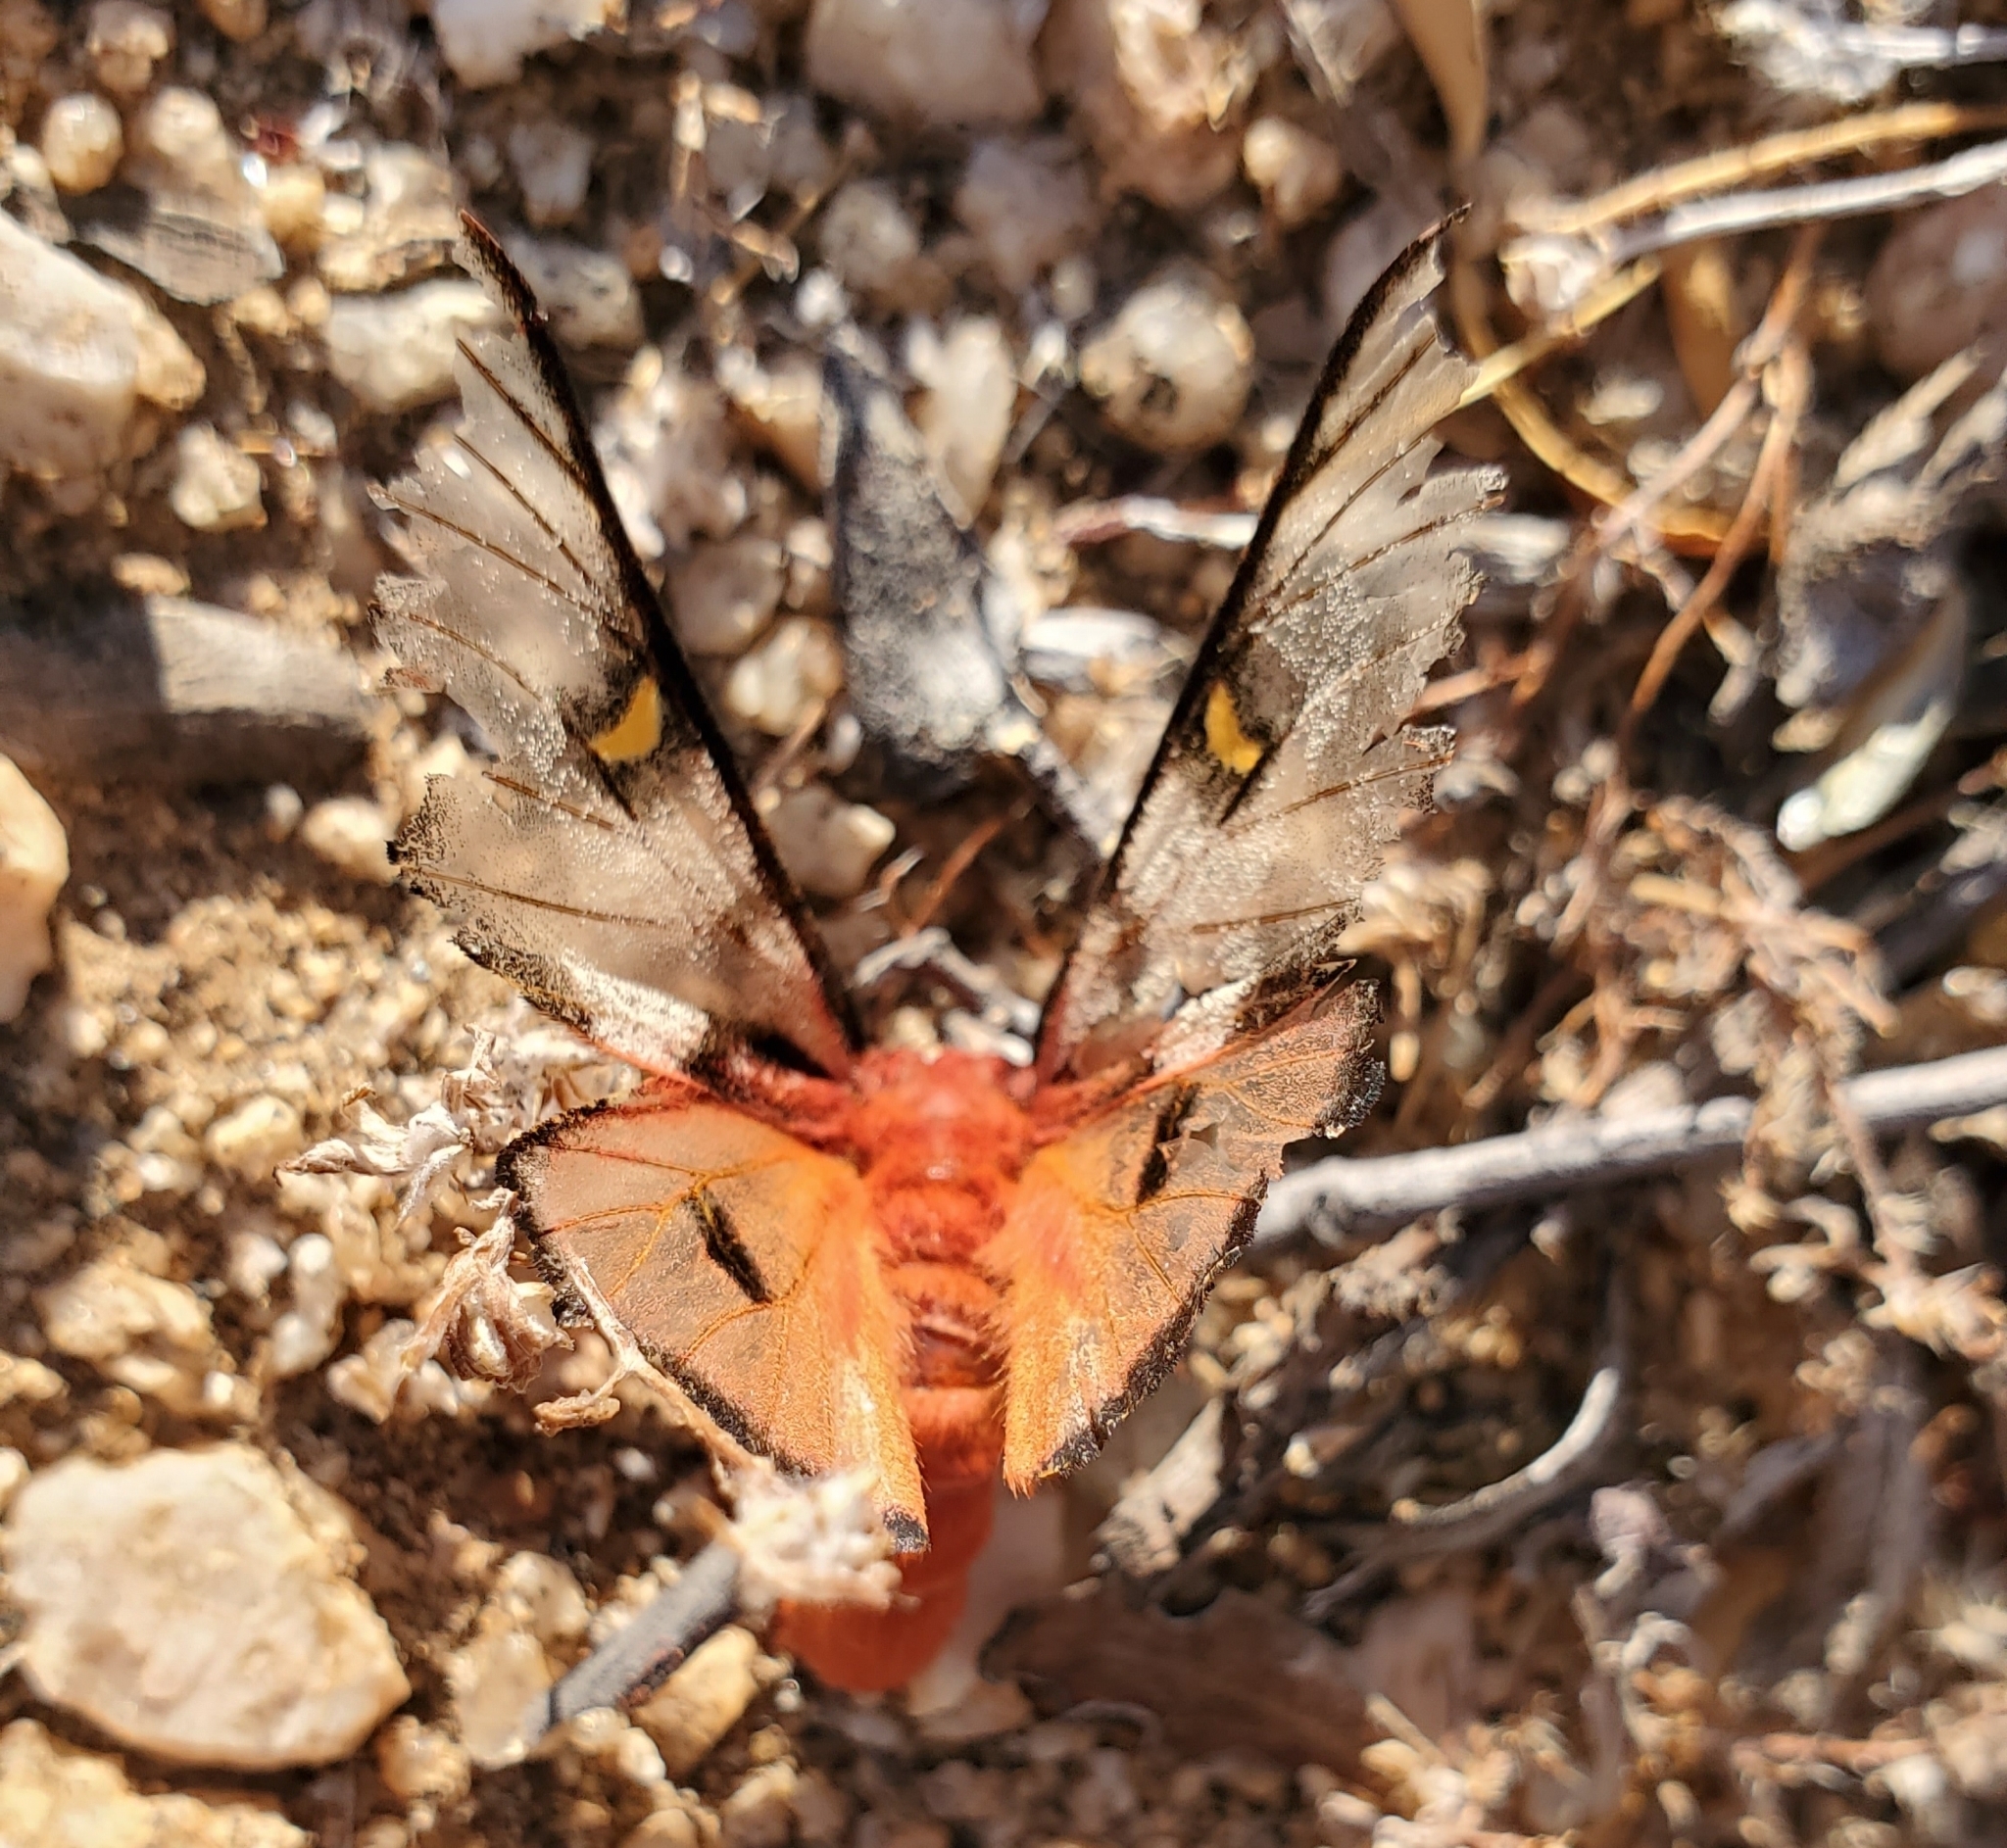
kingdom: Animalia
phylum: Arthropoda
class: Insecta
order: Lepidoptera
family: Saturniidae
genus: Hemileuca
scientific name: Hemileuca electra
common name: Electra buckmoth
